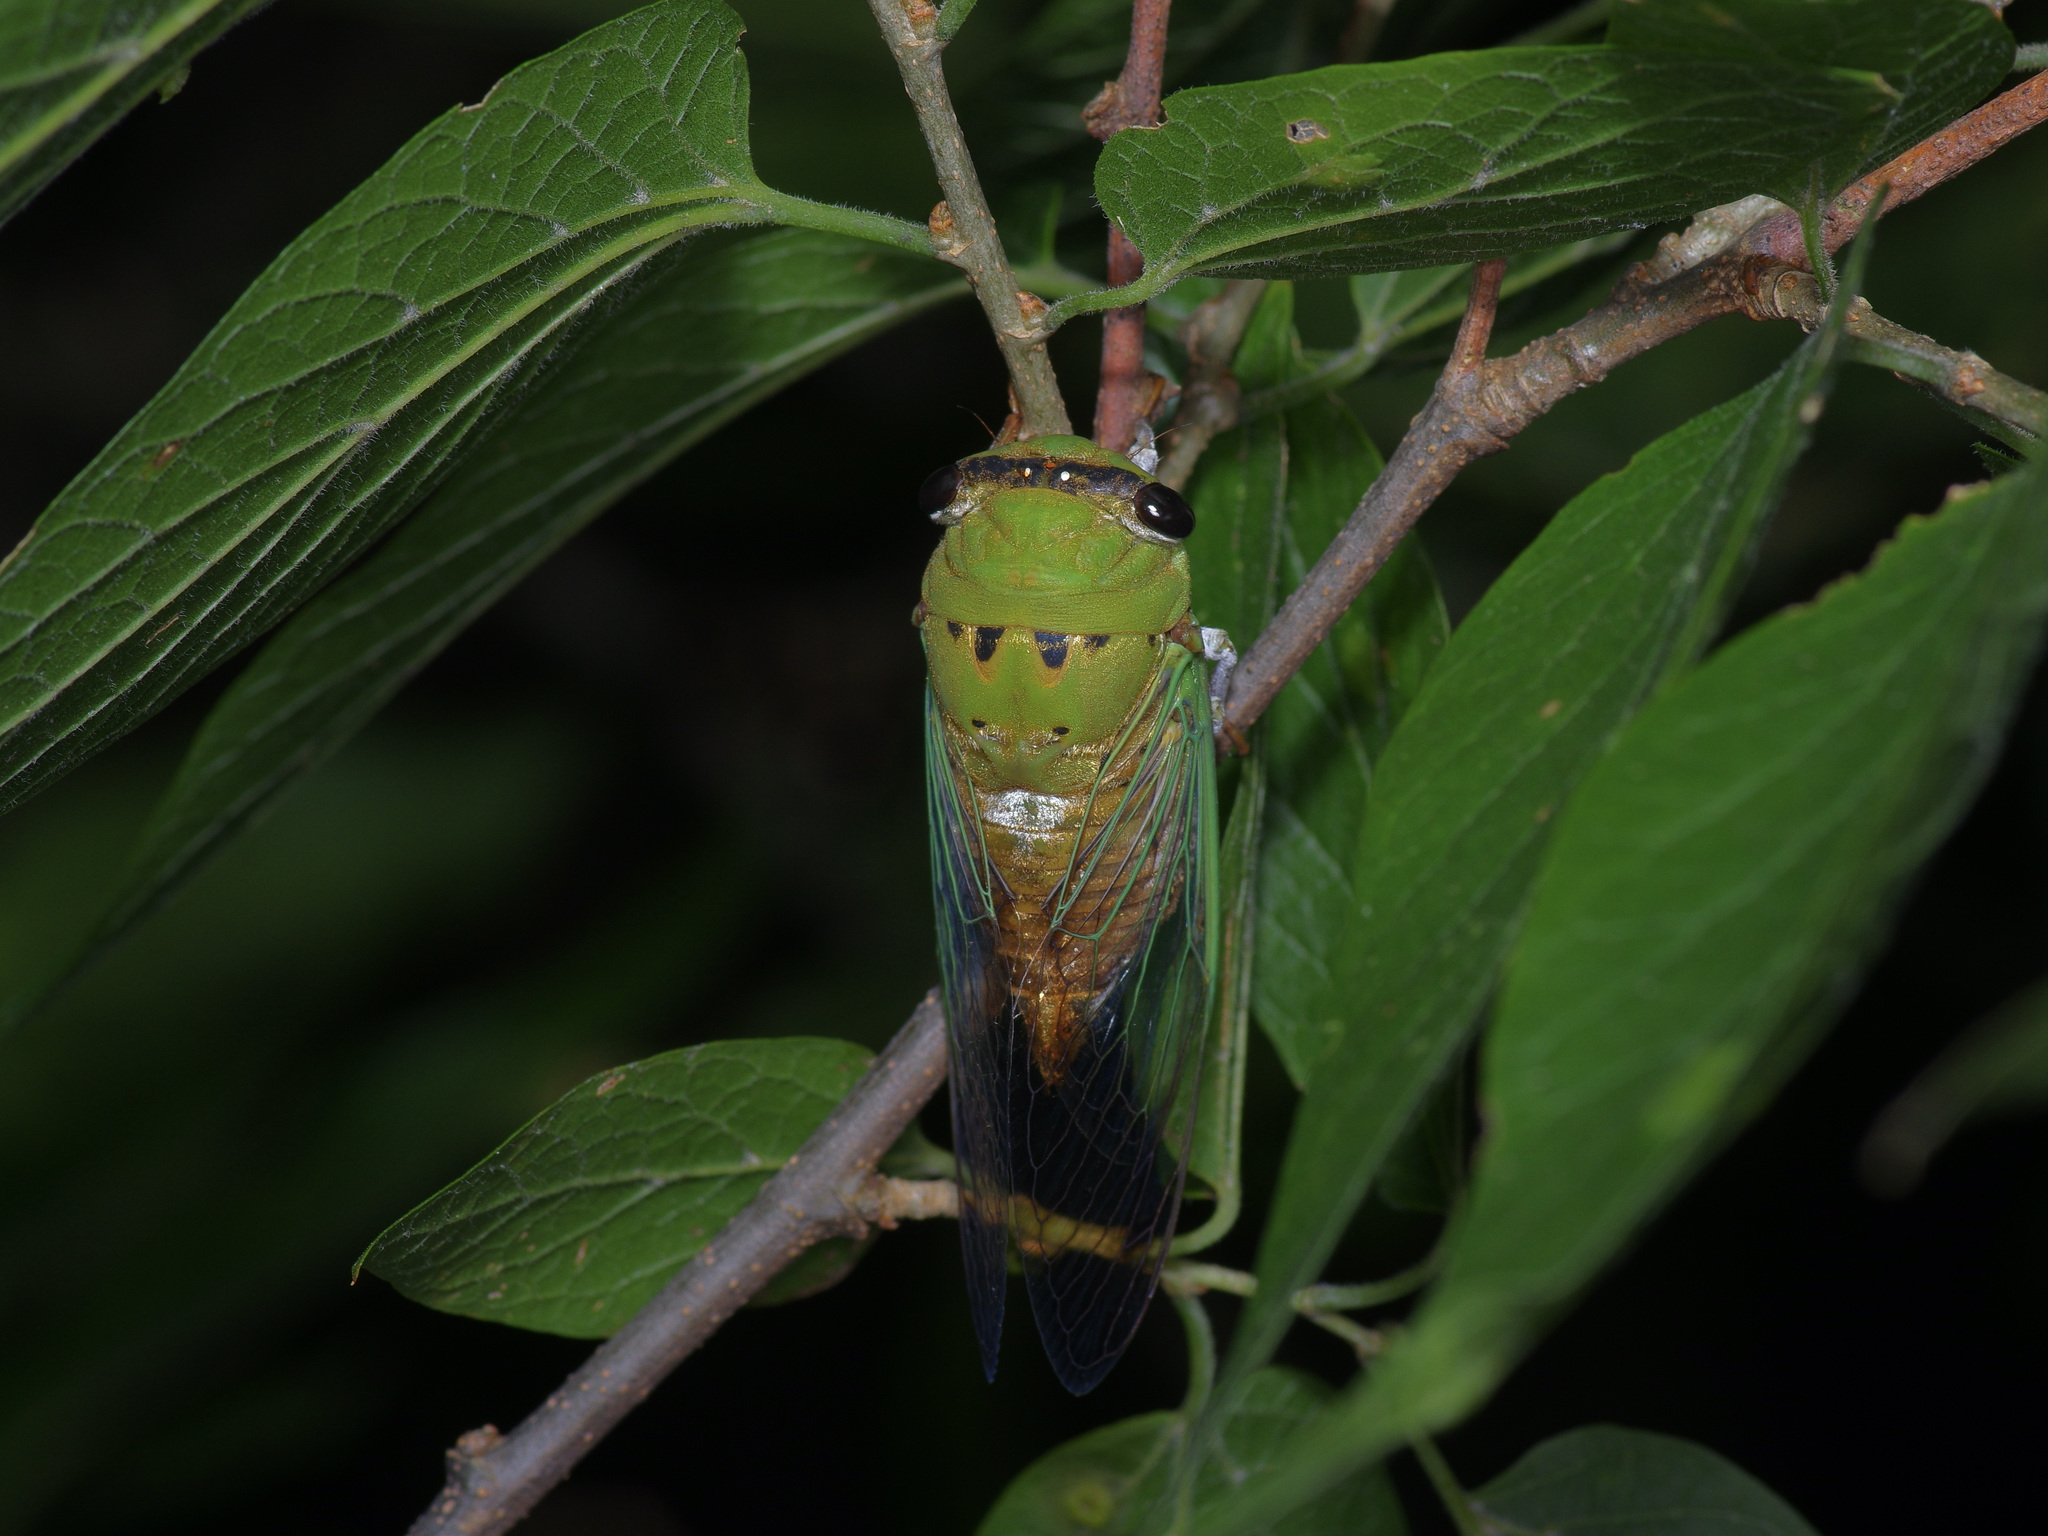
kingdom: Animalia
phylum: Arthropoda
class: Insecta
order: Hemiptera
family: Cicadidae
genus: Neotibicen
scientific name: Neotibicen superbus
